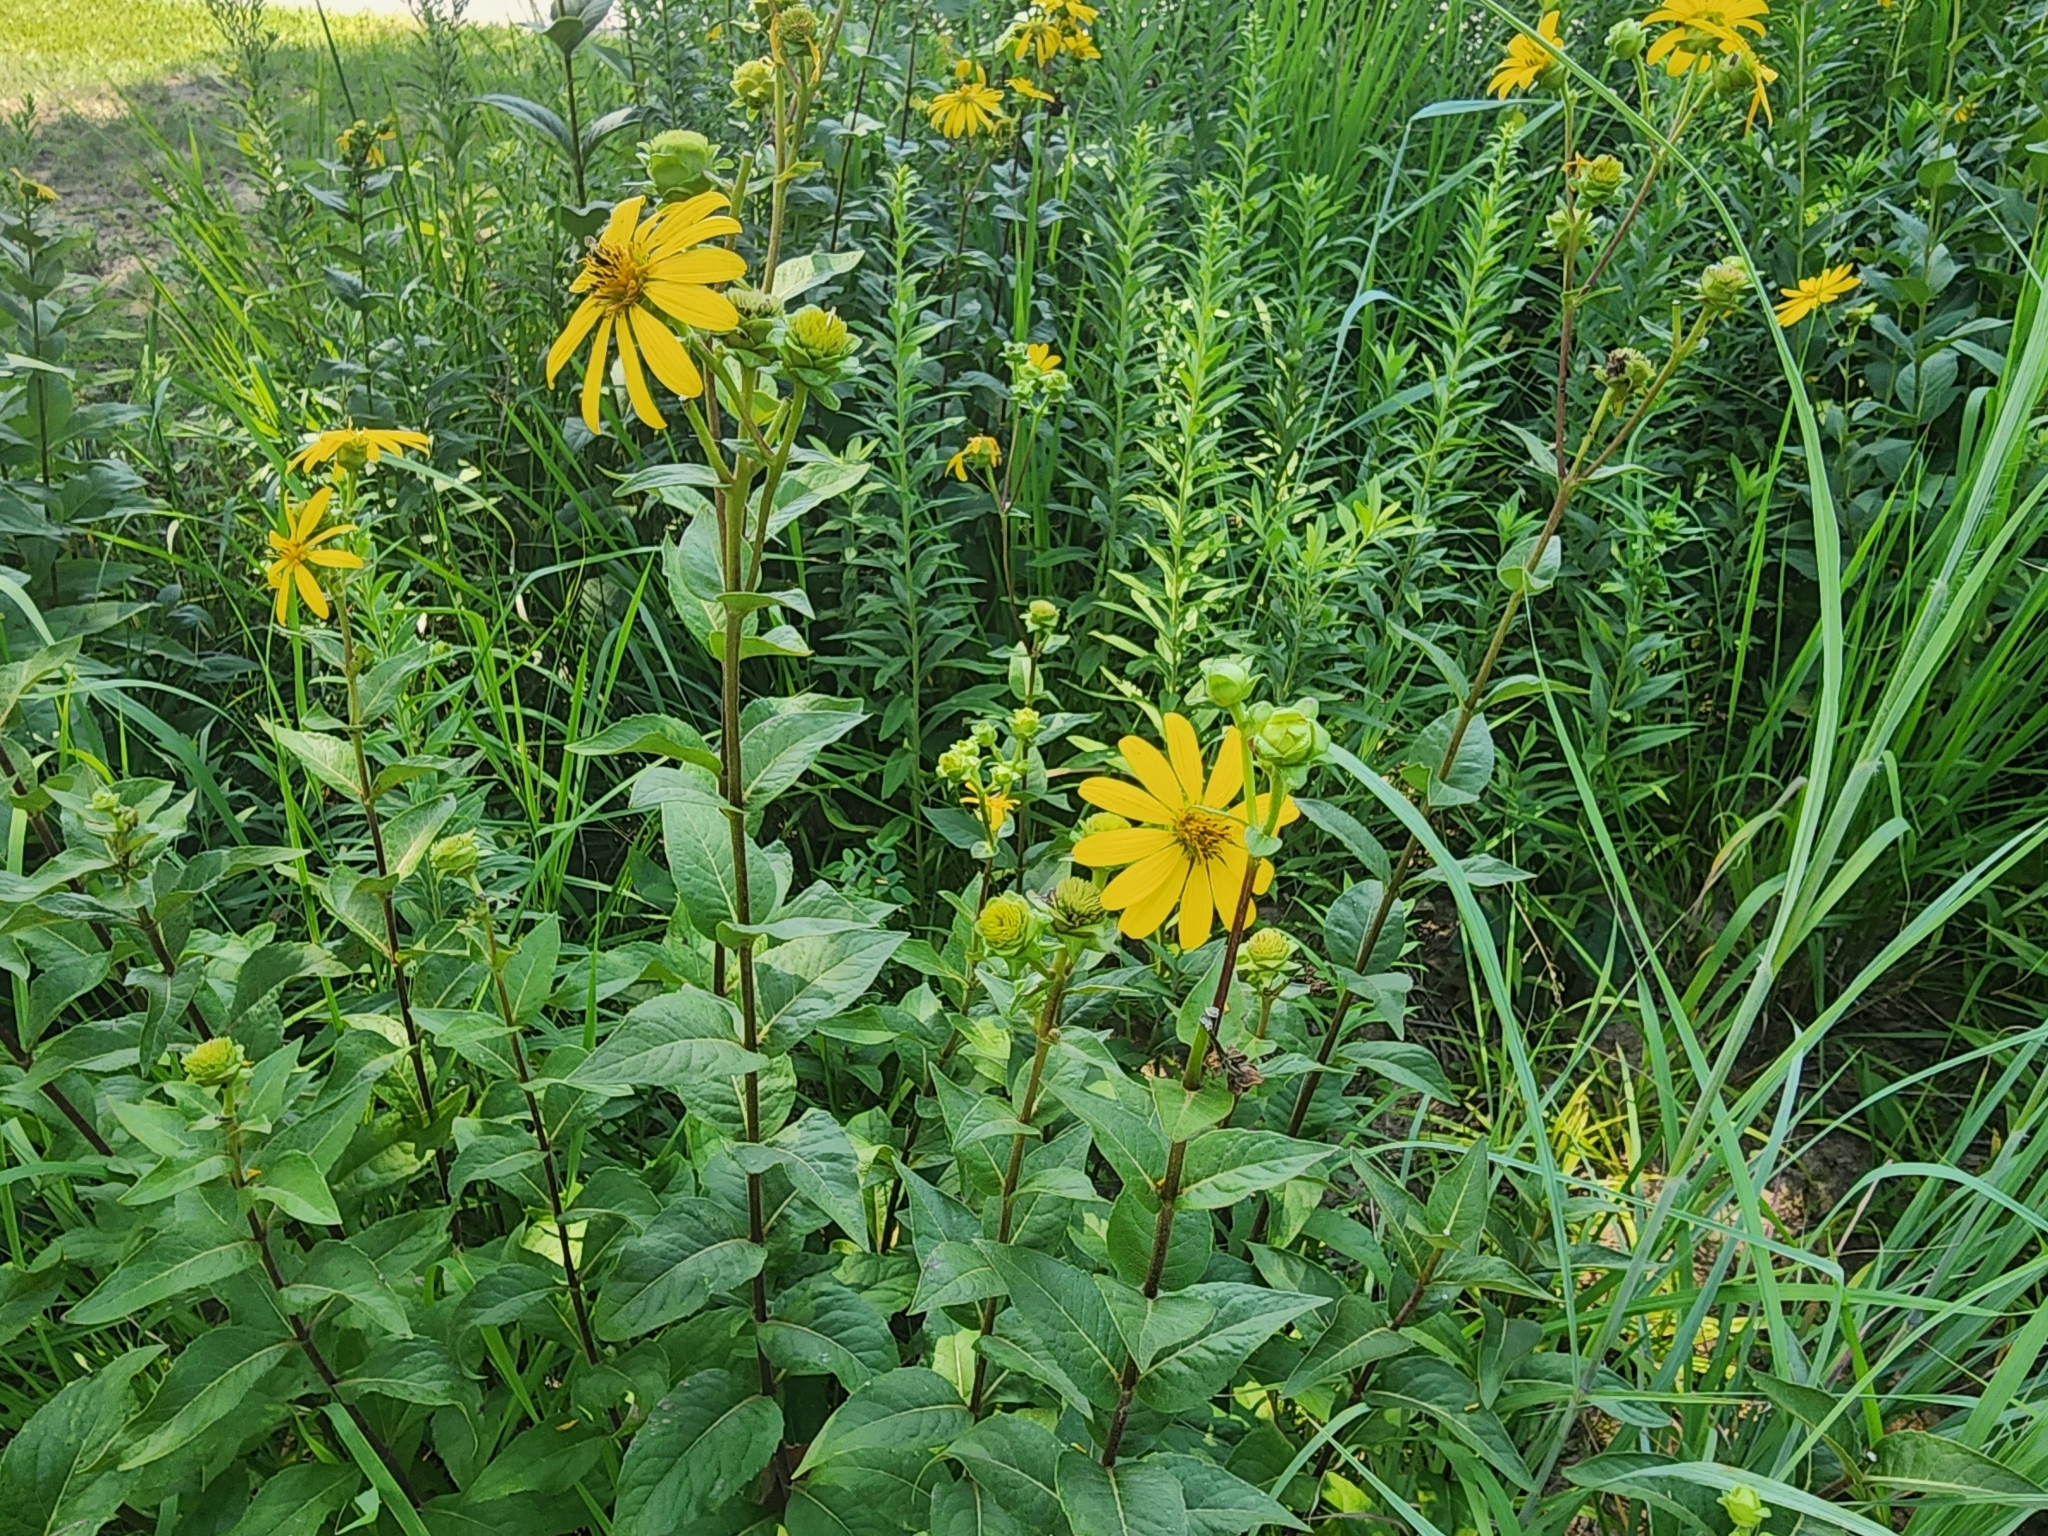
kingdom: Plantae
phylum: Tracheophyta
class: Magnoliopsida
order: Asterales
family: Asteraceae
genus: Silphium
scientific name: Silphium integrifolium
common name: Whole-leaf rosinweed
